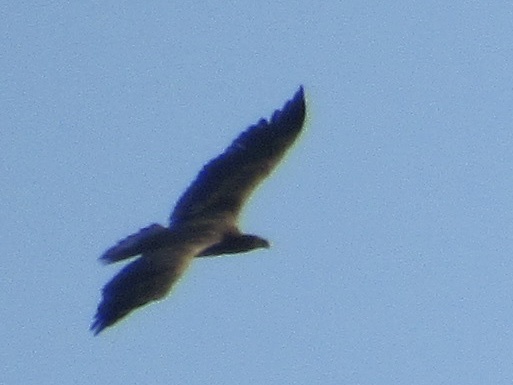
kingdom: Animalia
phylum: Chordata
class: Aves
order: Accipitriformes
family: Accipitridae
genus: Haliaeetus
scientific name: Haliaeetus leucocephalus
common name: Bald eagle
